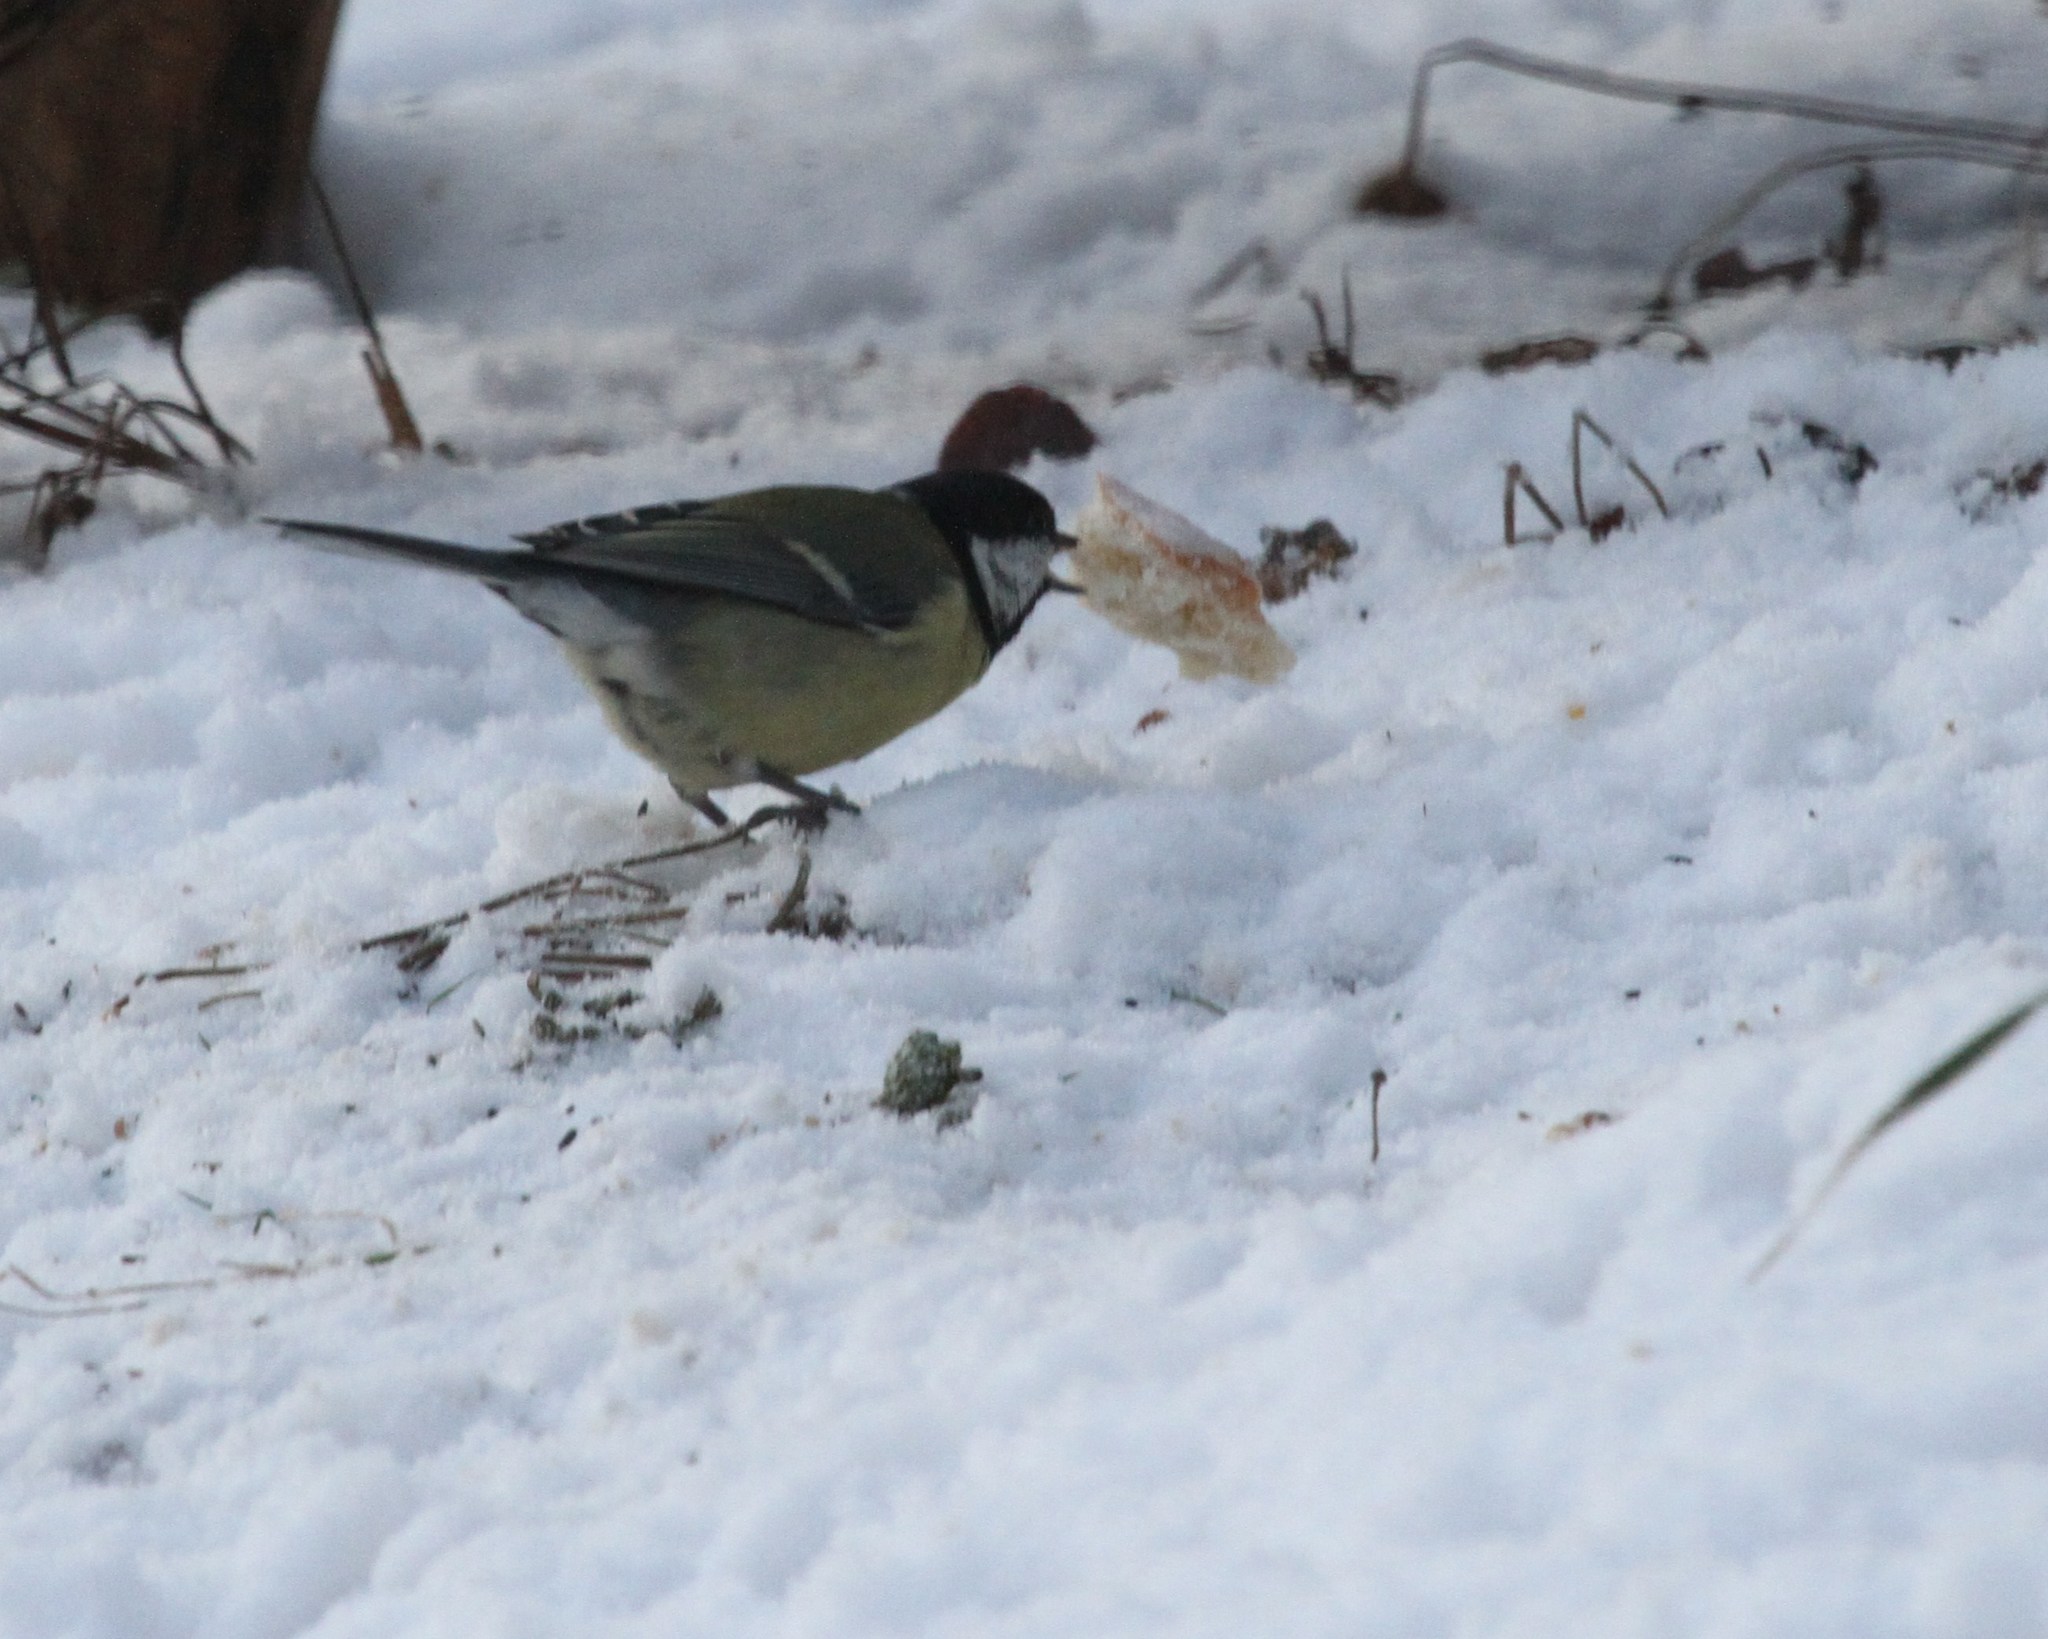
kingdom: Animalia
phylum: Chordata
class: Aves
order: Passeriformes
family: Paridae
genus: Parus
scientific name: Parus major
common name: Great tit
